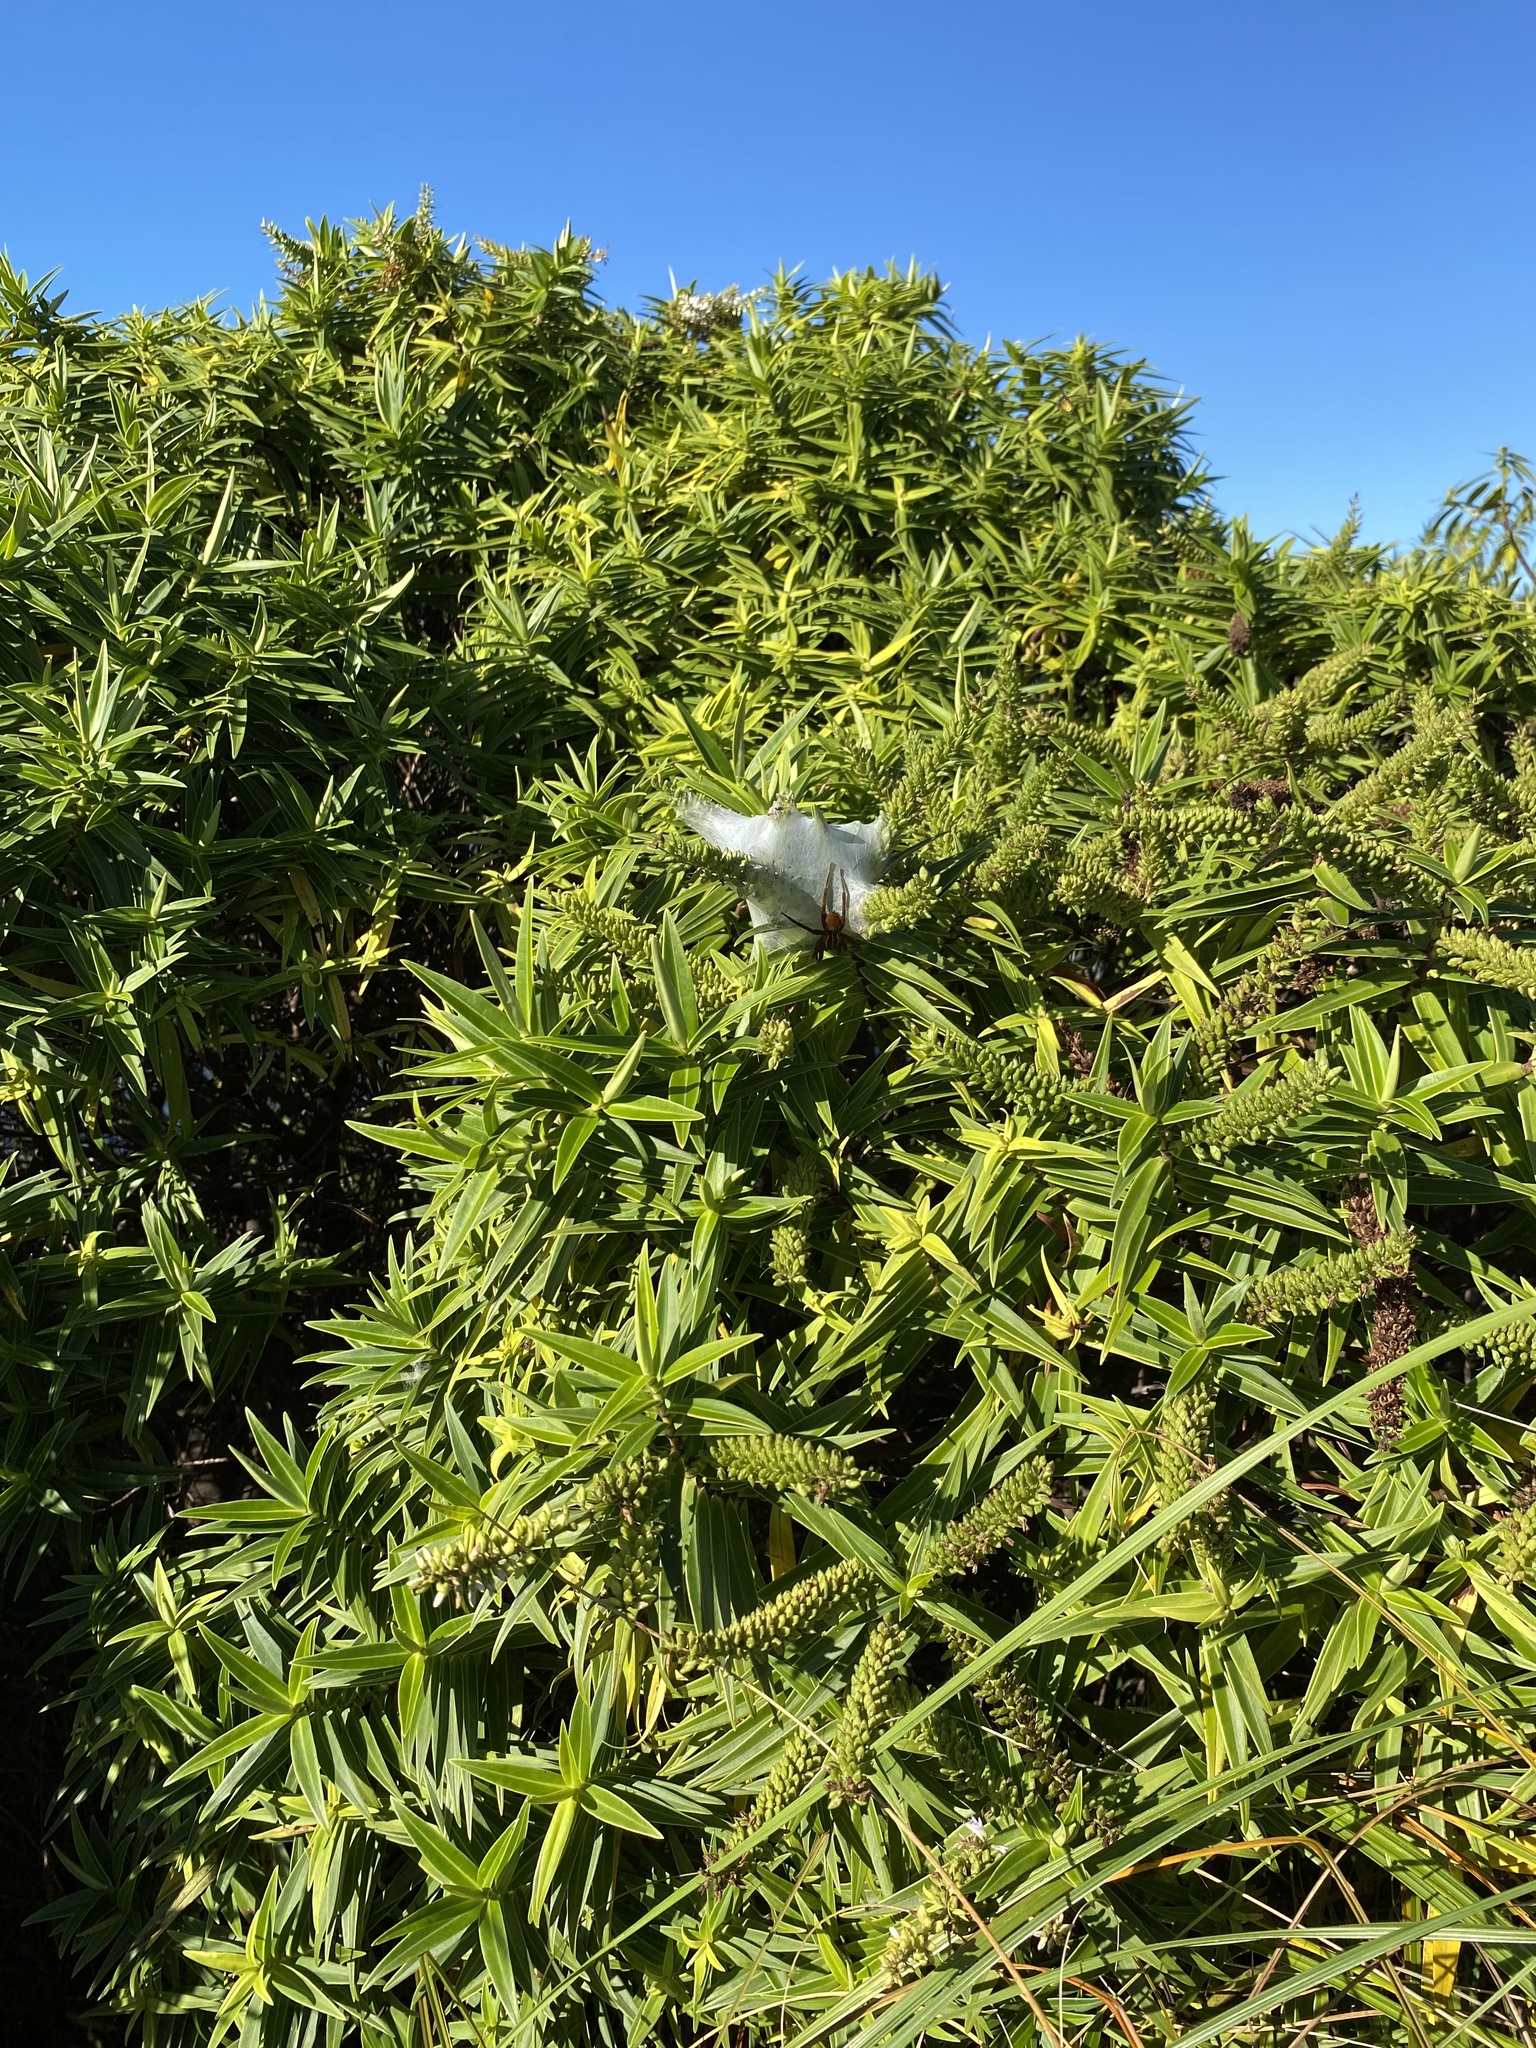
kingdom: Animalia
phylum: Arthropoda
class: Arachnida
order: Araneae
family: Pisauridae
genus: Dolomedes
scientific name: Dolomedes minor
